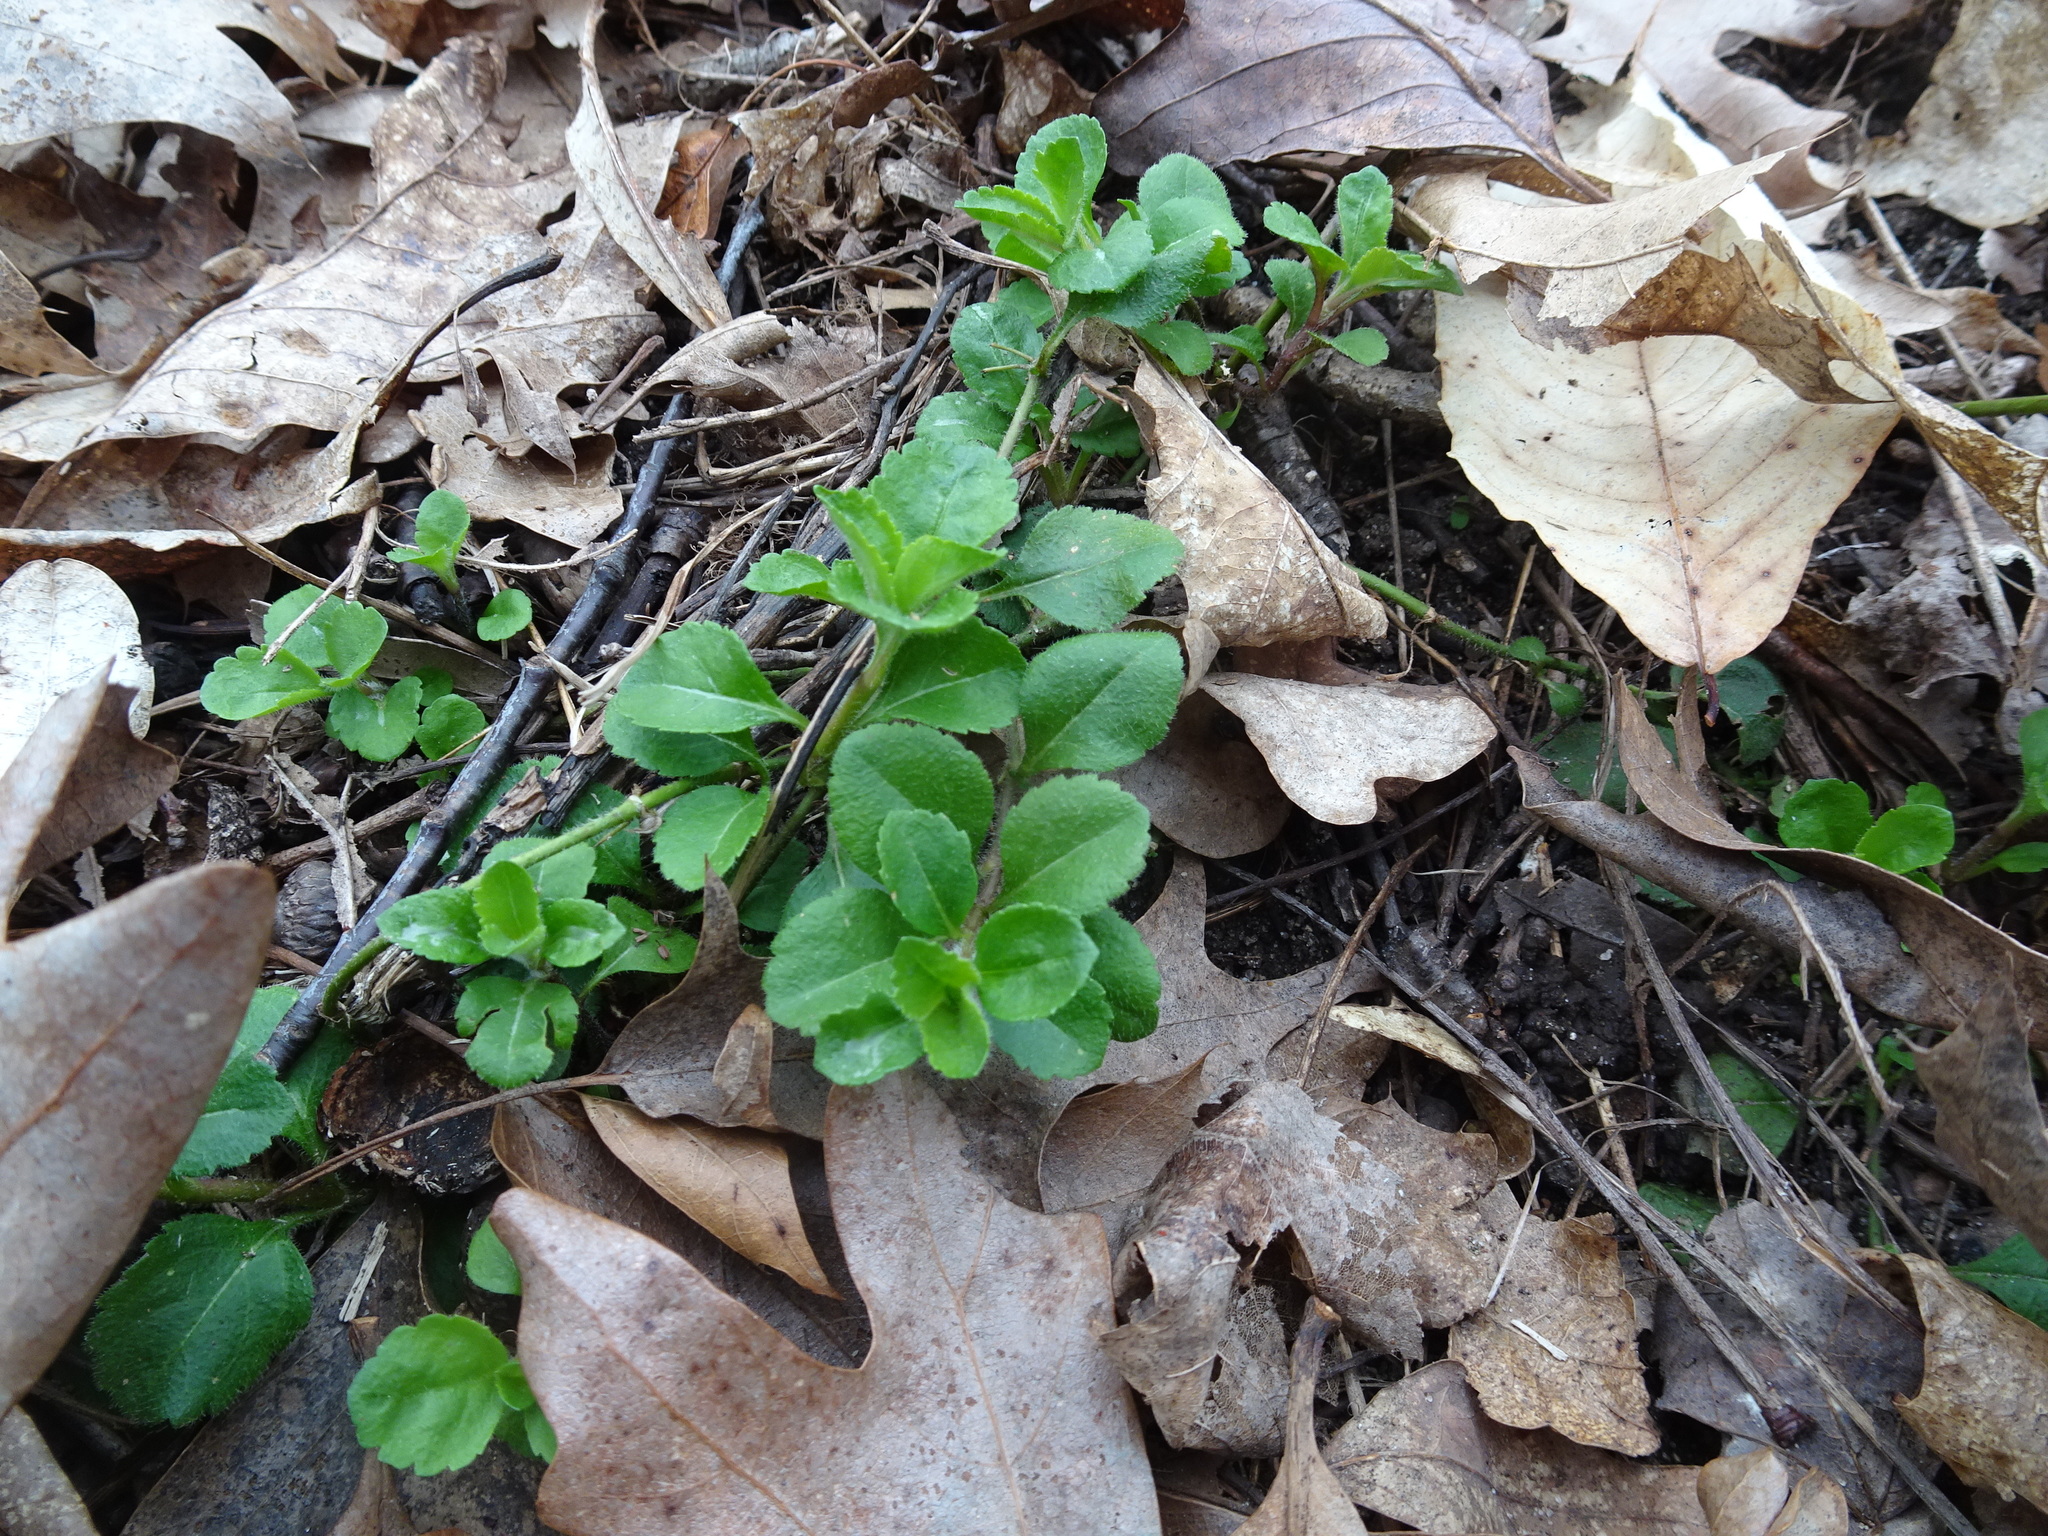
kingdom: Plantae
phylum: Tracheophyta
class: Magnoliopsida
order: Lamiales
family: Plantaginaceae
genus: Veronica
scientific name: Veronica officinalis
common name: Common speedwell
